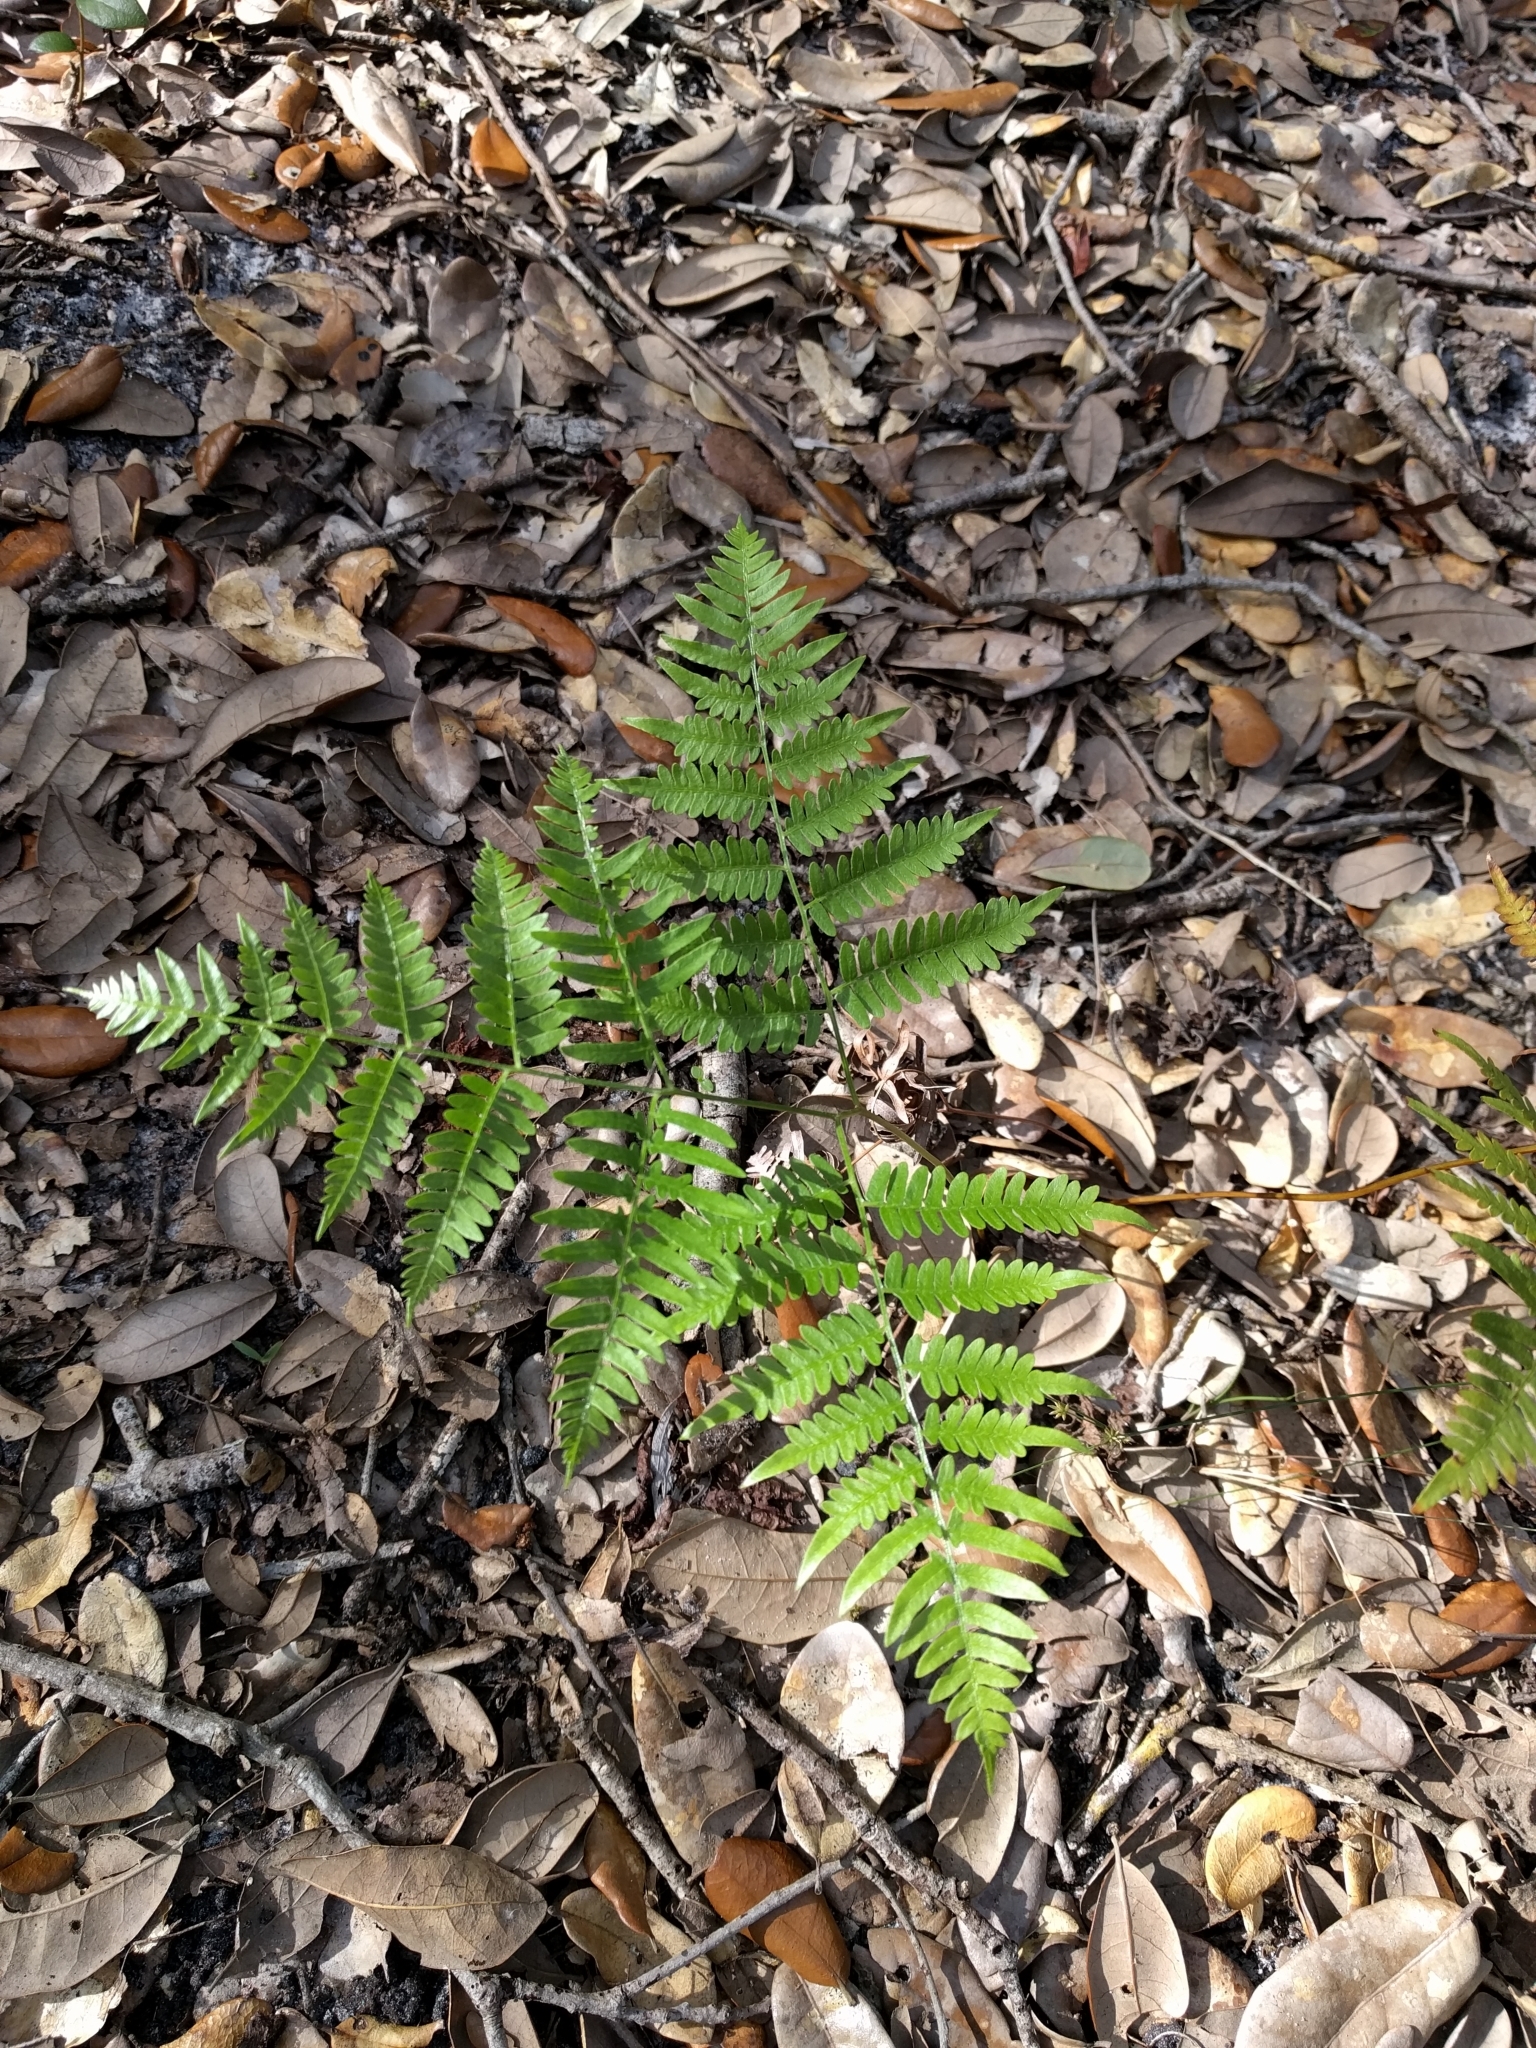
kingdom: Plantae
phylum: Tracheophyta
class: Polypodiopsida
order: Polypodiales
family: Dennstaedtiaceae
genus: Pteridium
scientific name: Pteridium aquilinum
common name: Bracken
